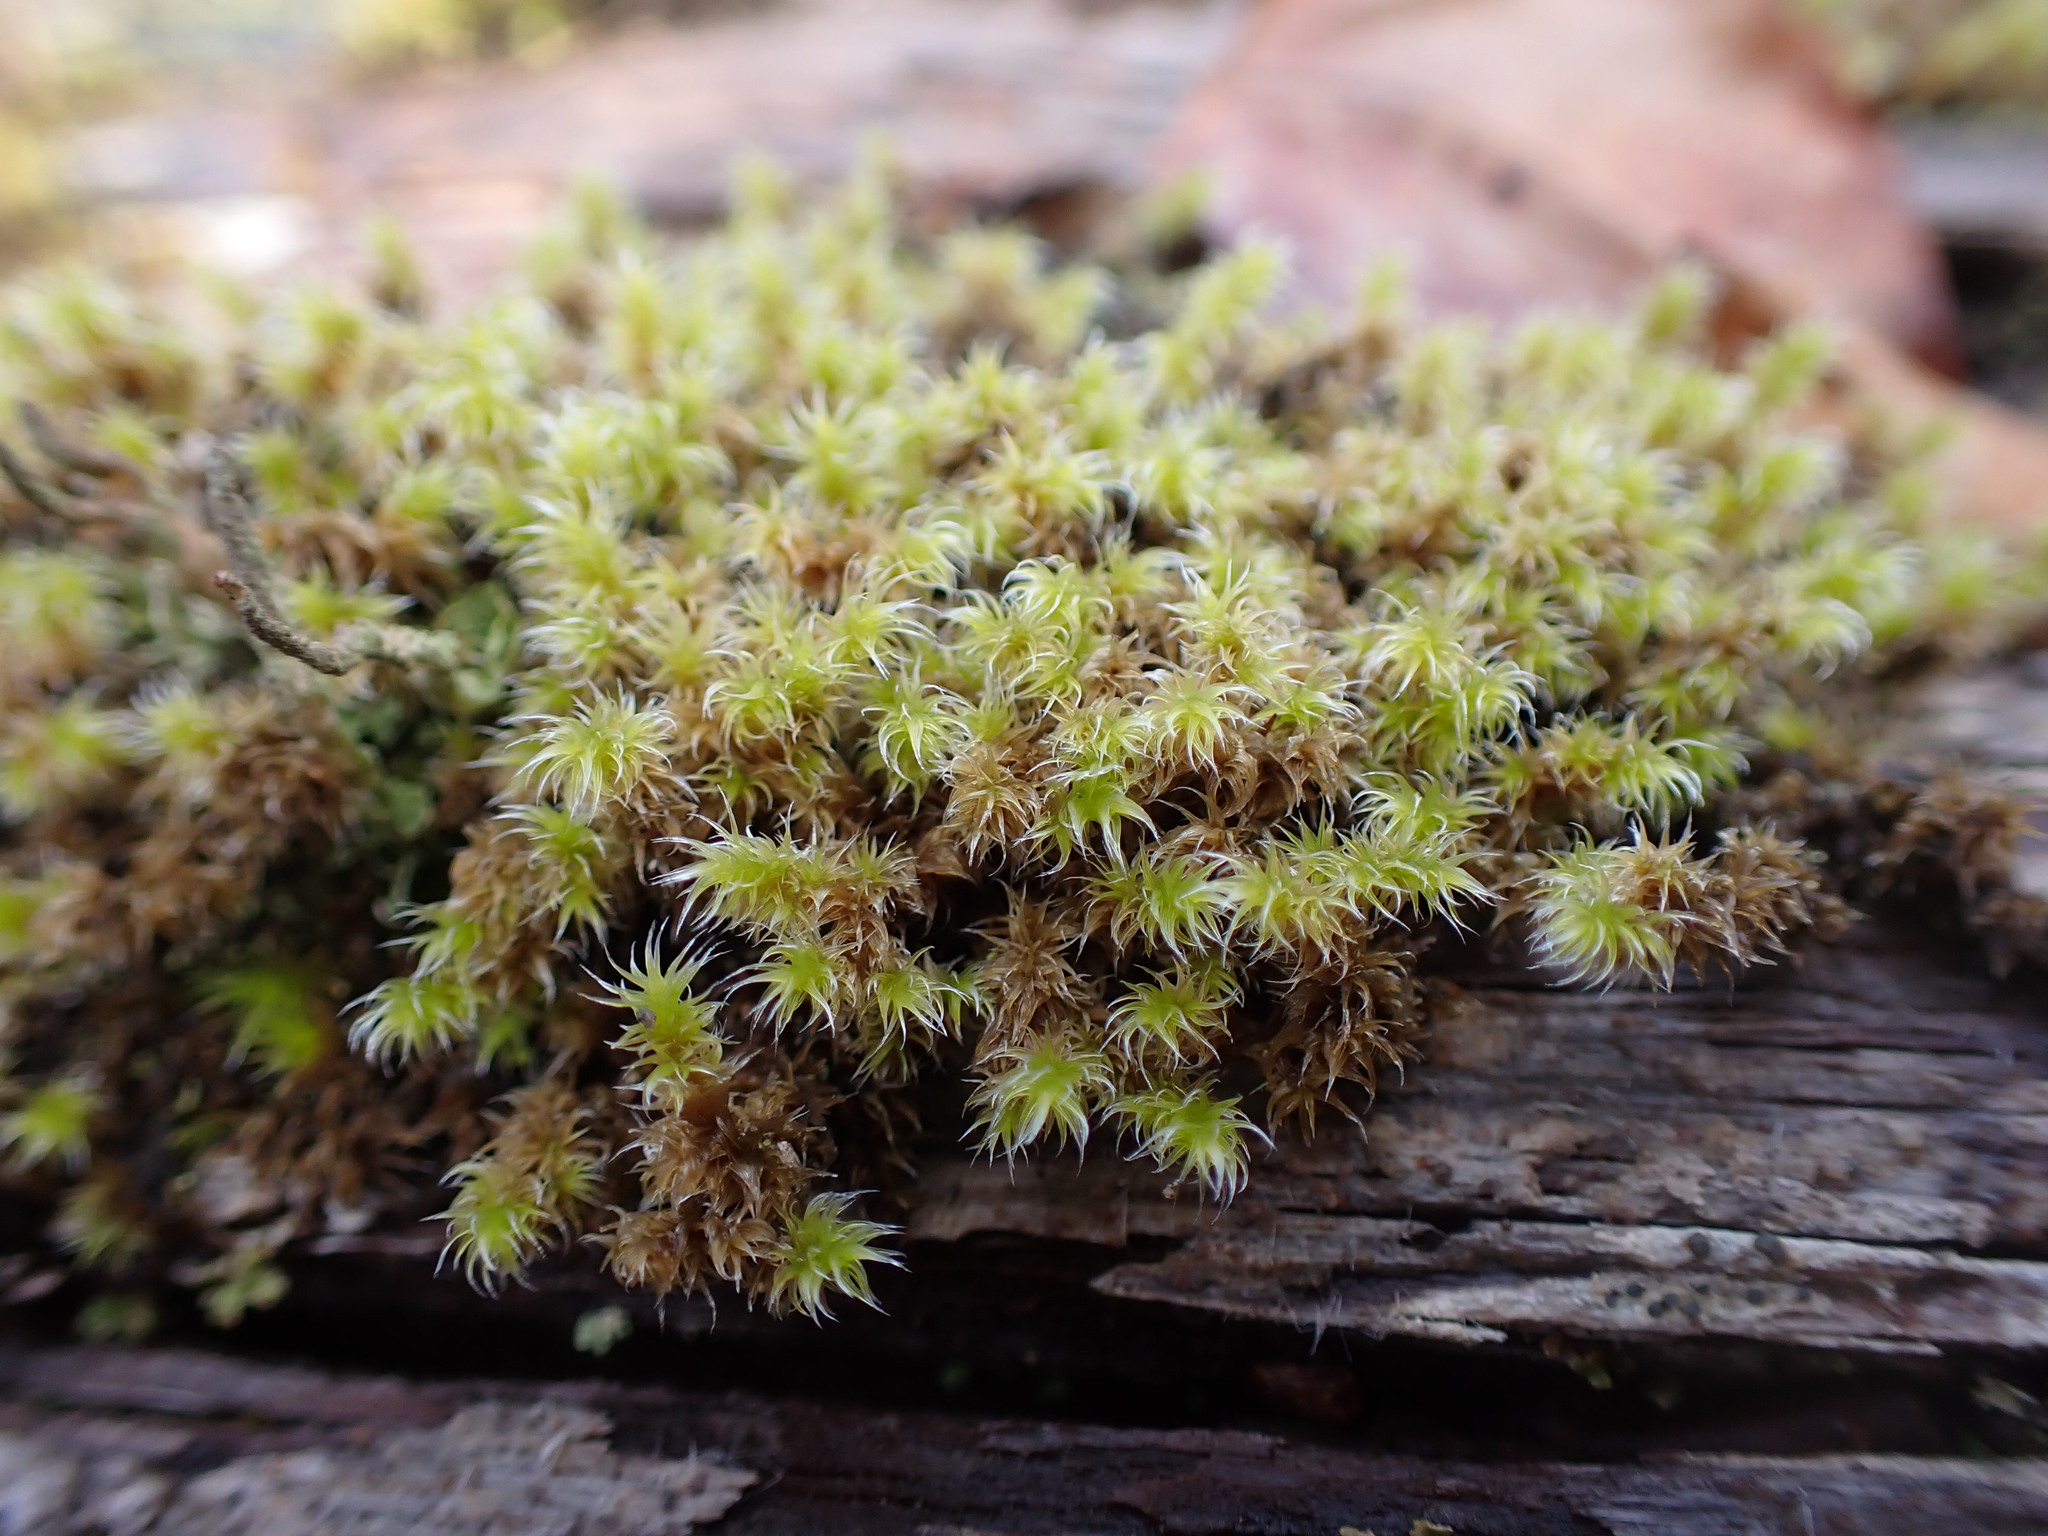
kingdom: Plantae
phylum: Bryophyta
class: Bryopsida
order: Grimmiales
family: Grimmiaceae
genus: Niphotrichum
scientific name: Niphotrichum elongatum
